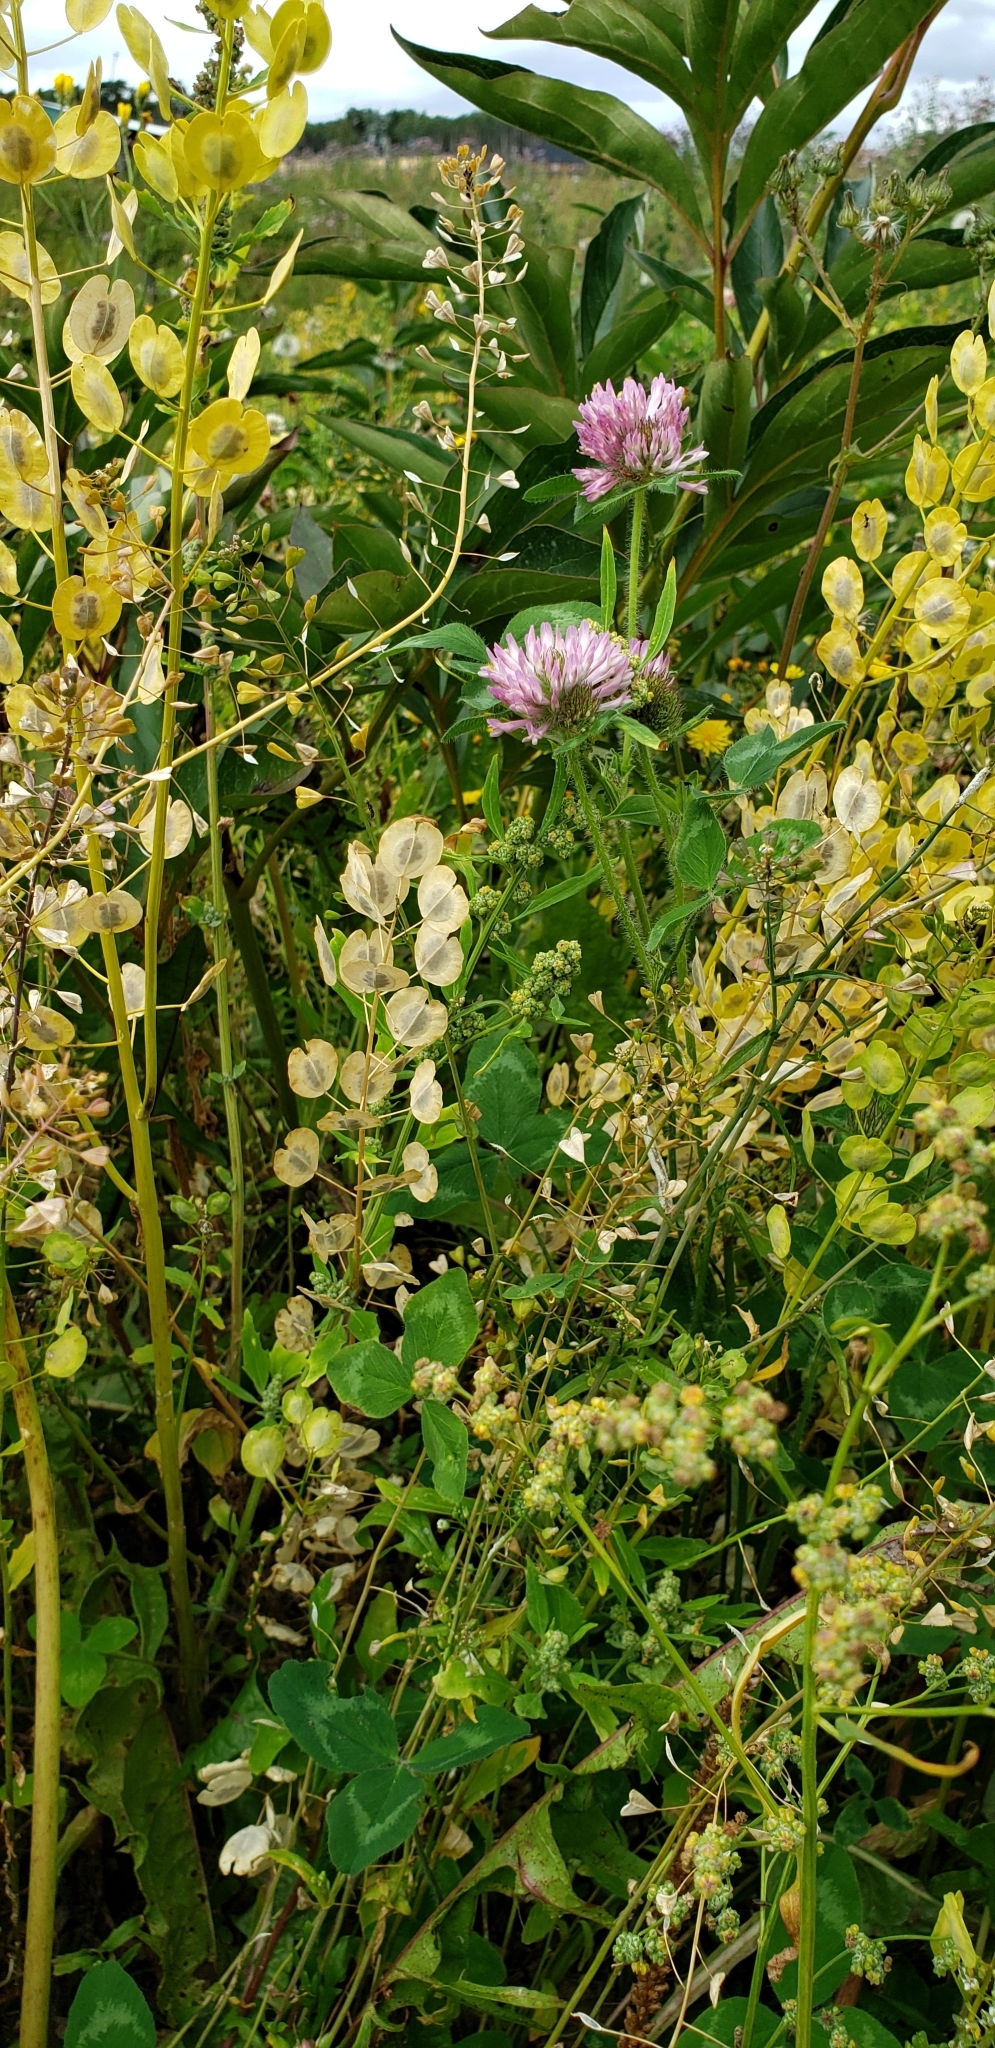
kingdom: Plantae
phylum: Tracheophyta
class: Magnoliopsida
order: Brassicales
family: Brassicaceae
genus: Thlaspi
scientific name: Thlaspi arvense
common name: Field pennycress
